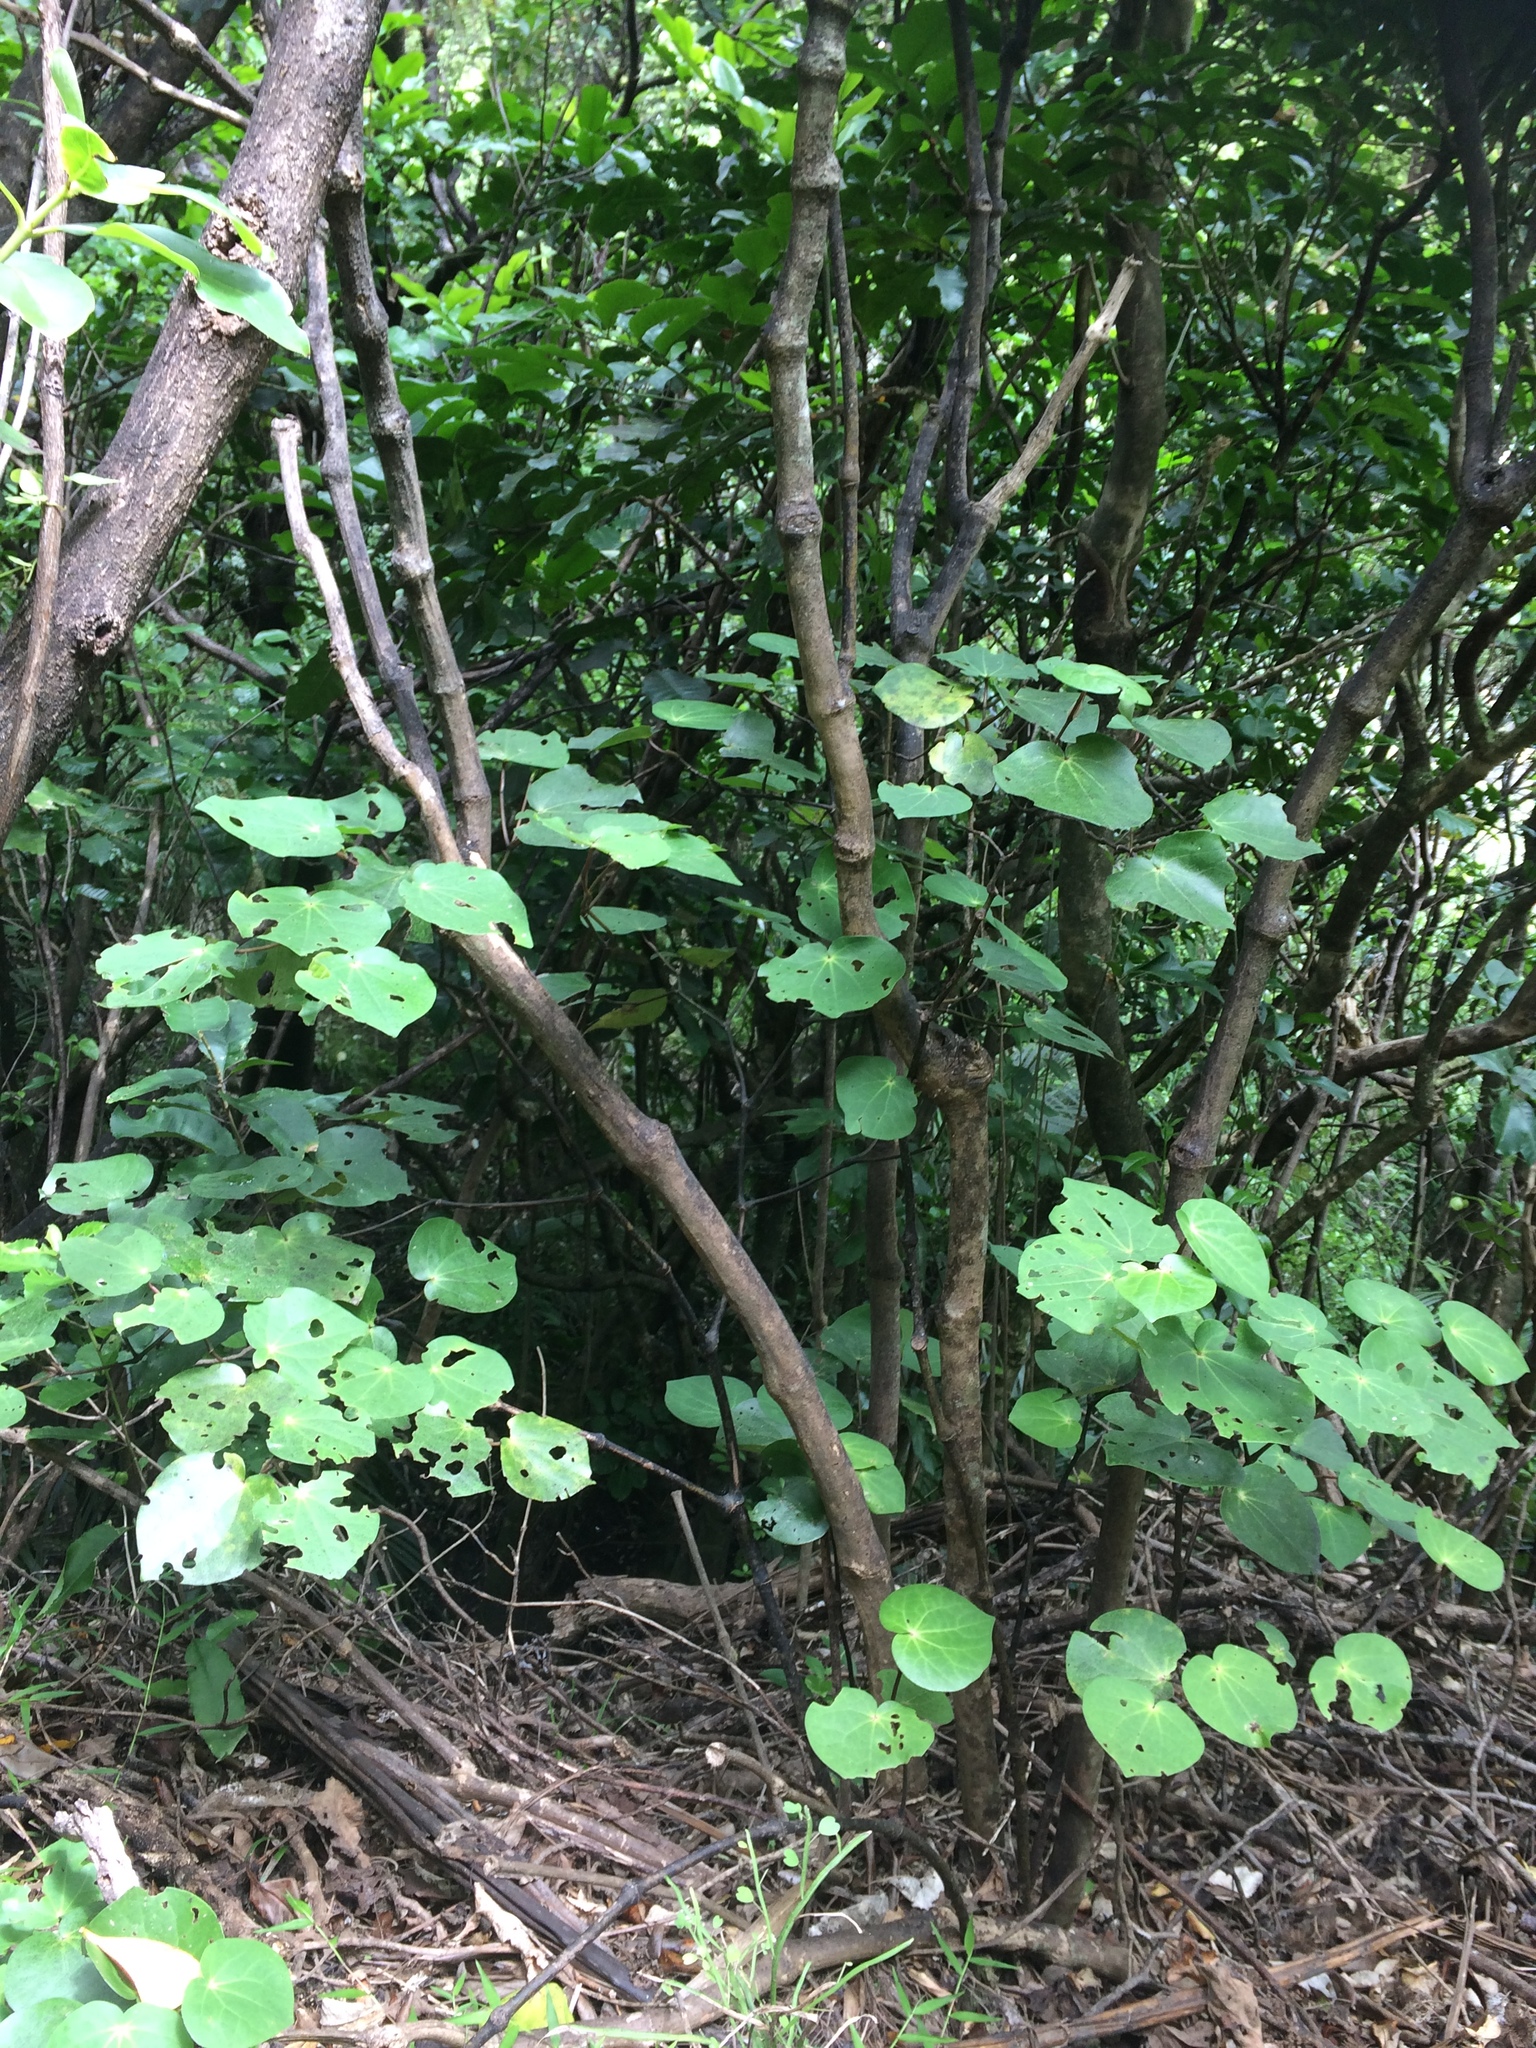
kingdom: Plantae
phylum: Tracheophyta
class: Magnoliopsida
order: Piperales
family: Piperaceae
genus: Macropiper
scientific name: Macropiper excelsum
